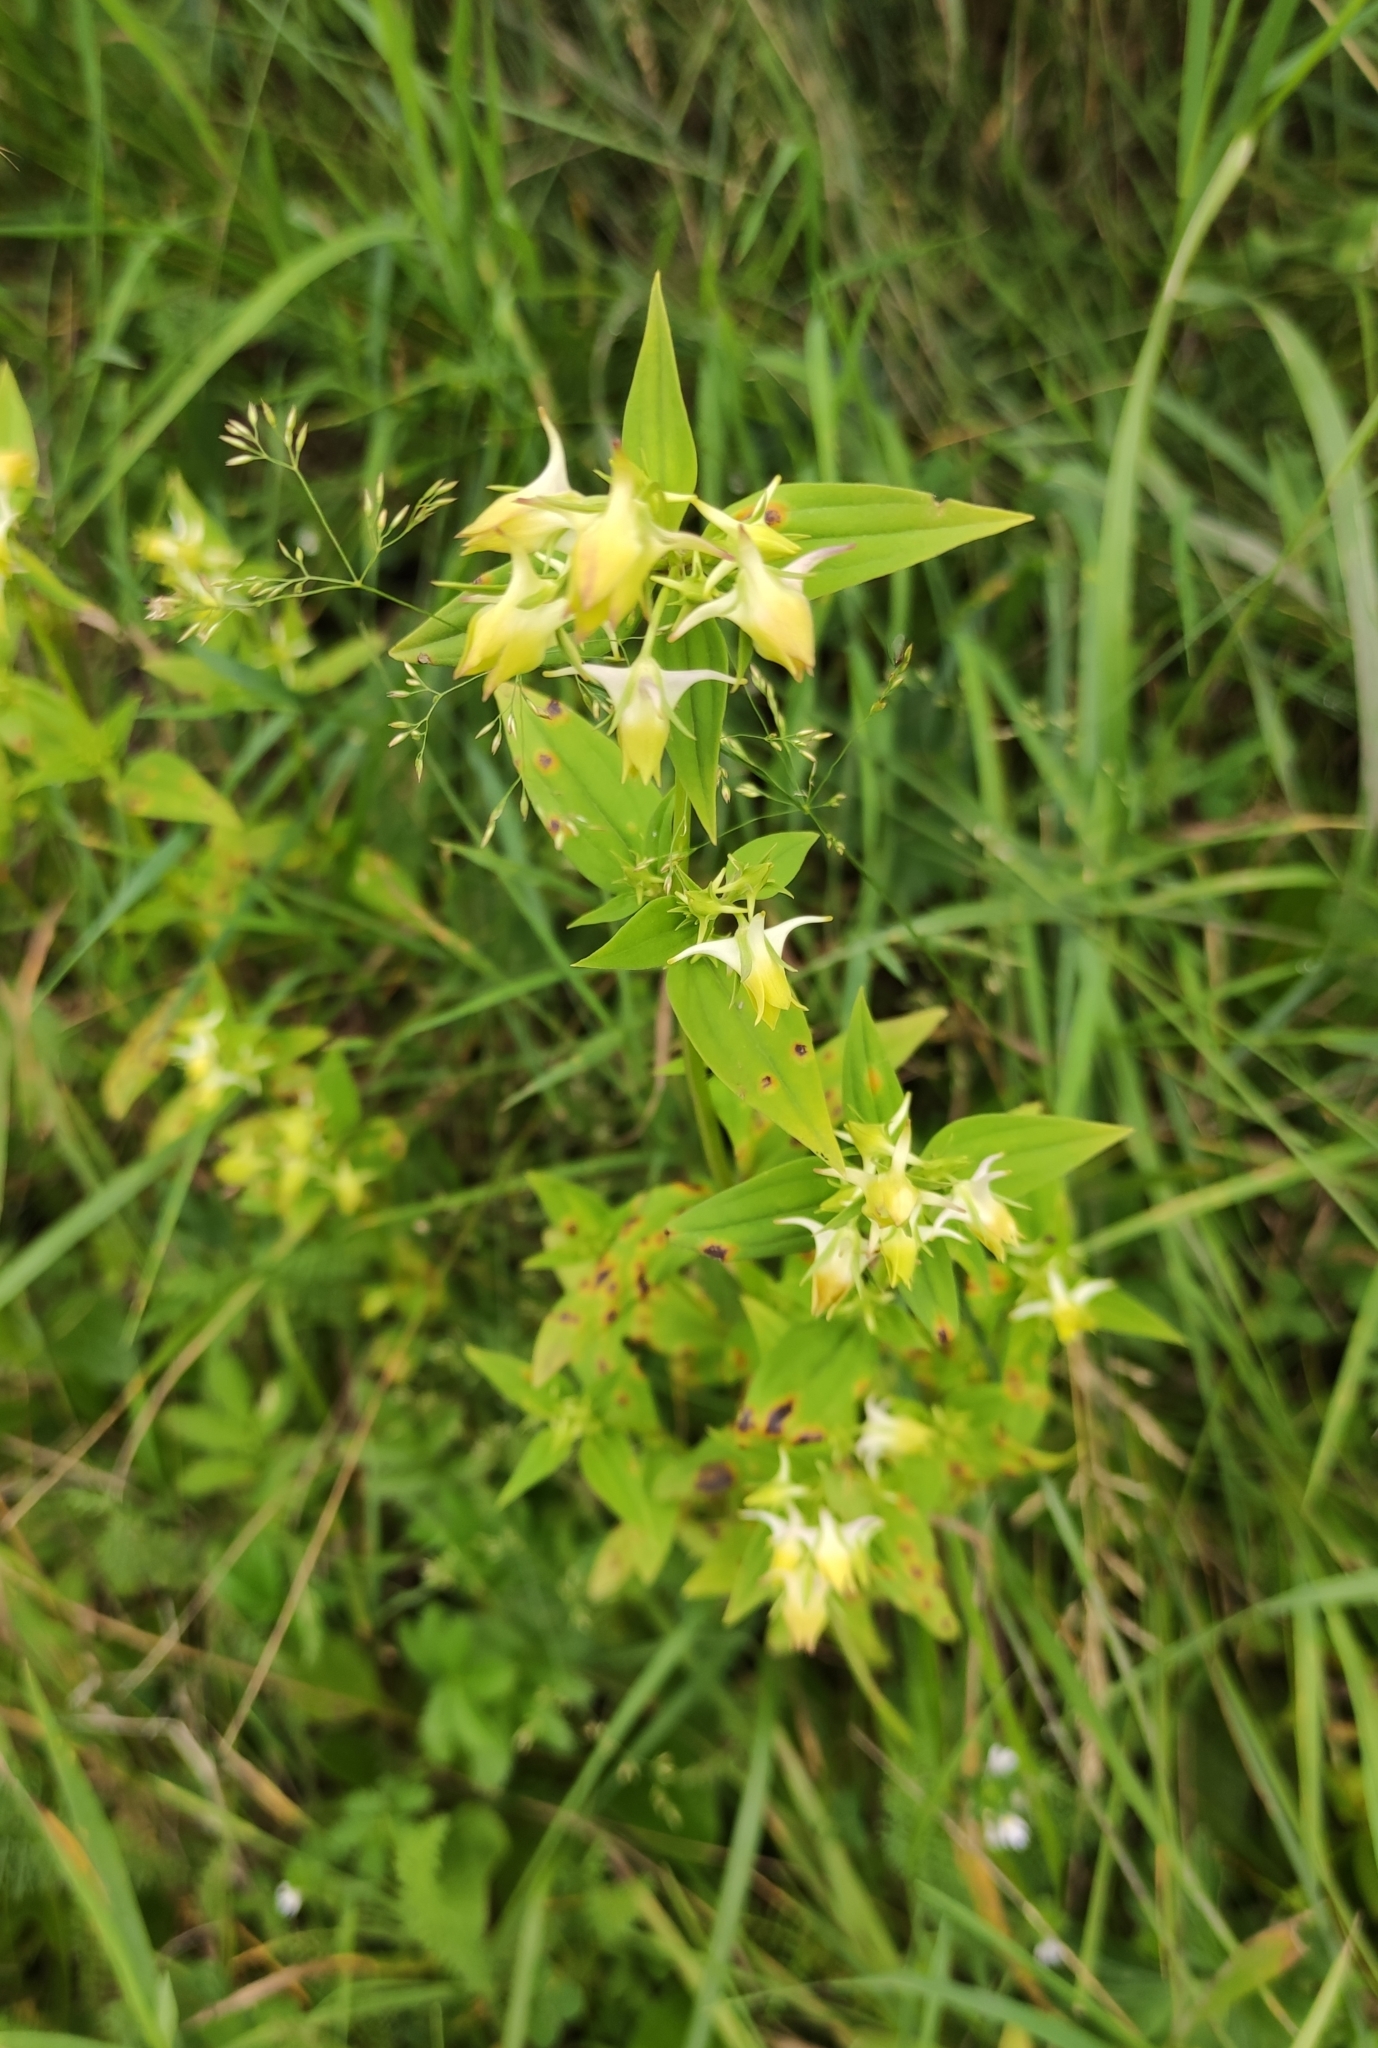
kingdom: Plantae
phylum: Tracheophyta
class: Magnoliopsida
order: Gentianales
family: Gentianaceae
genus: Halenia
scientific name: Halenia corniculata
